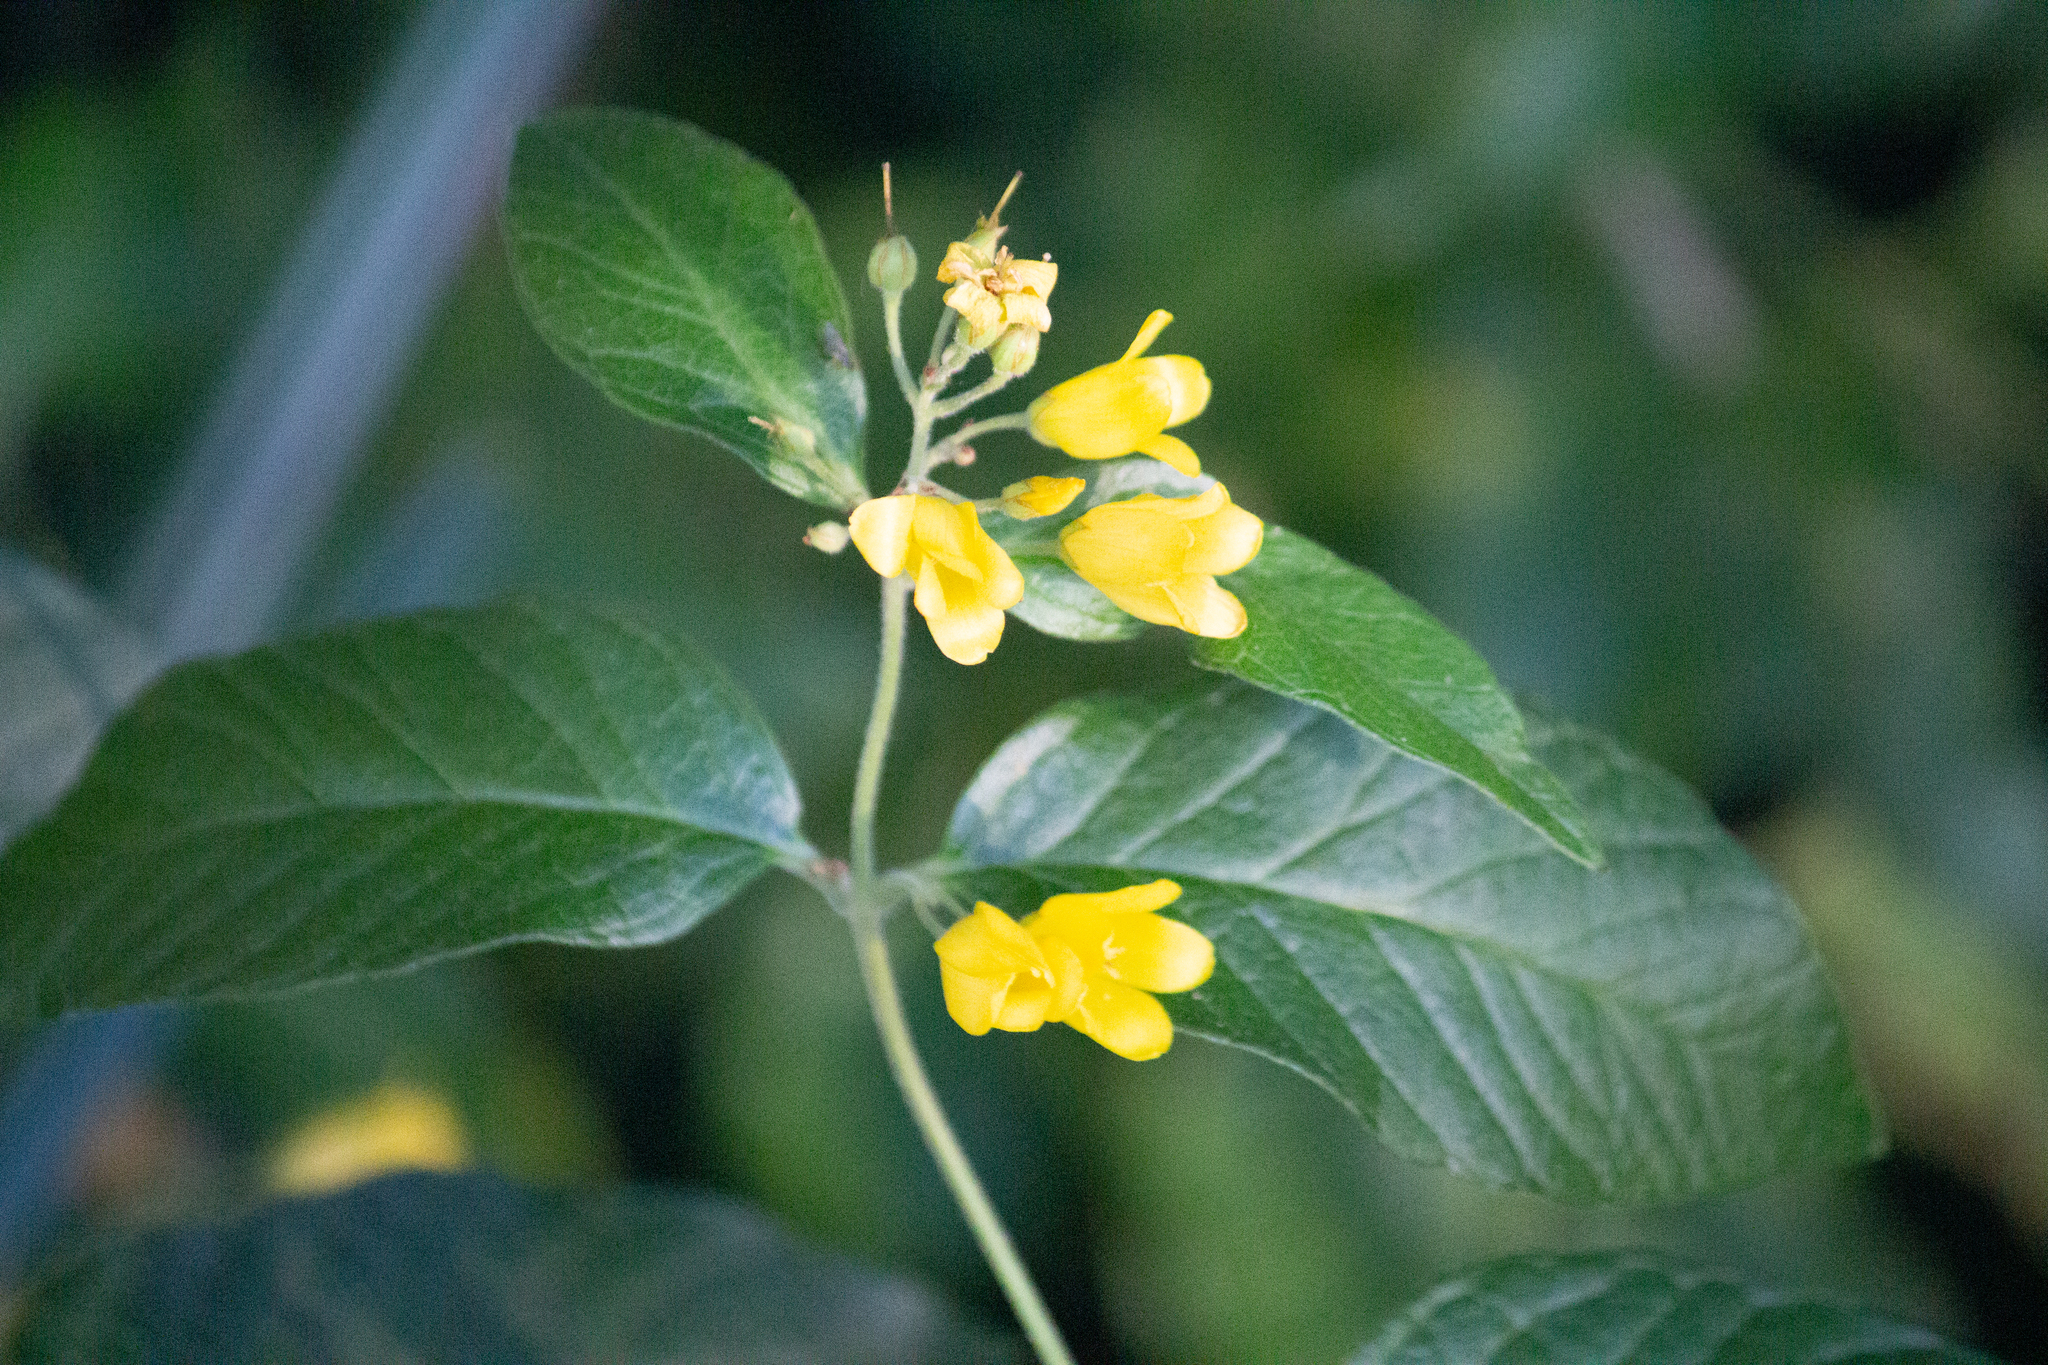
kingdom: Plantae
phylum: Tracheophyta
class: Magnoliopsida
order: Ericales
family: Primulaceae
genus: Lysimachia
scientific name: Lysimachia vulgaris
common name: Yellow loosestrife
